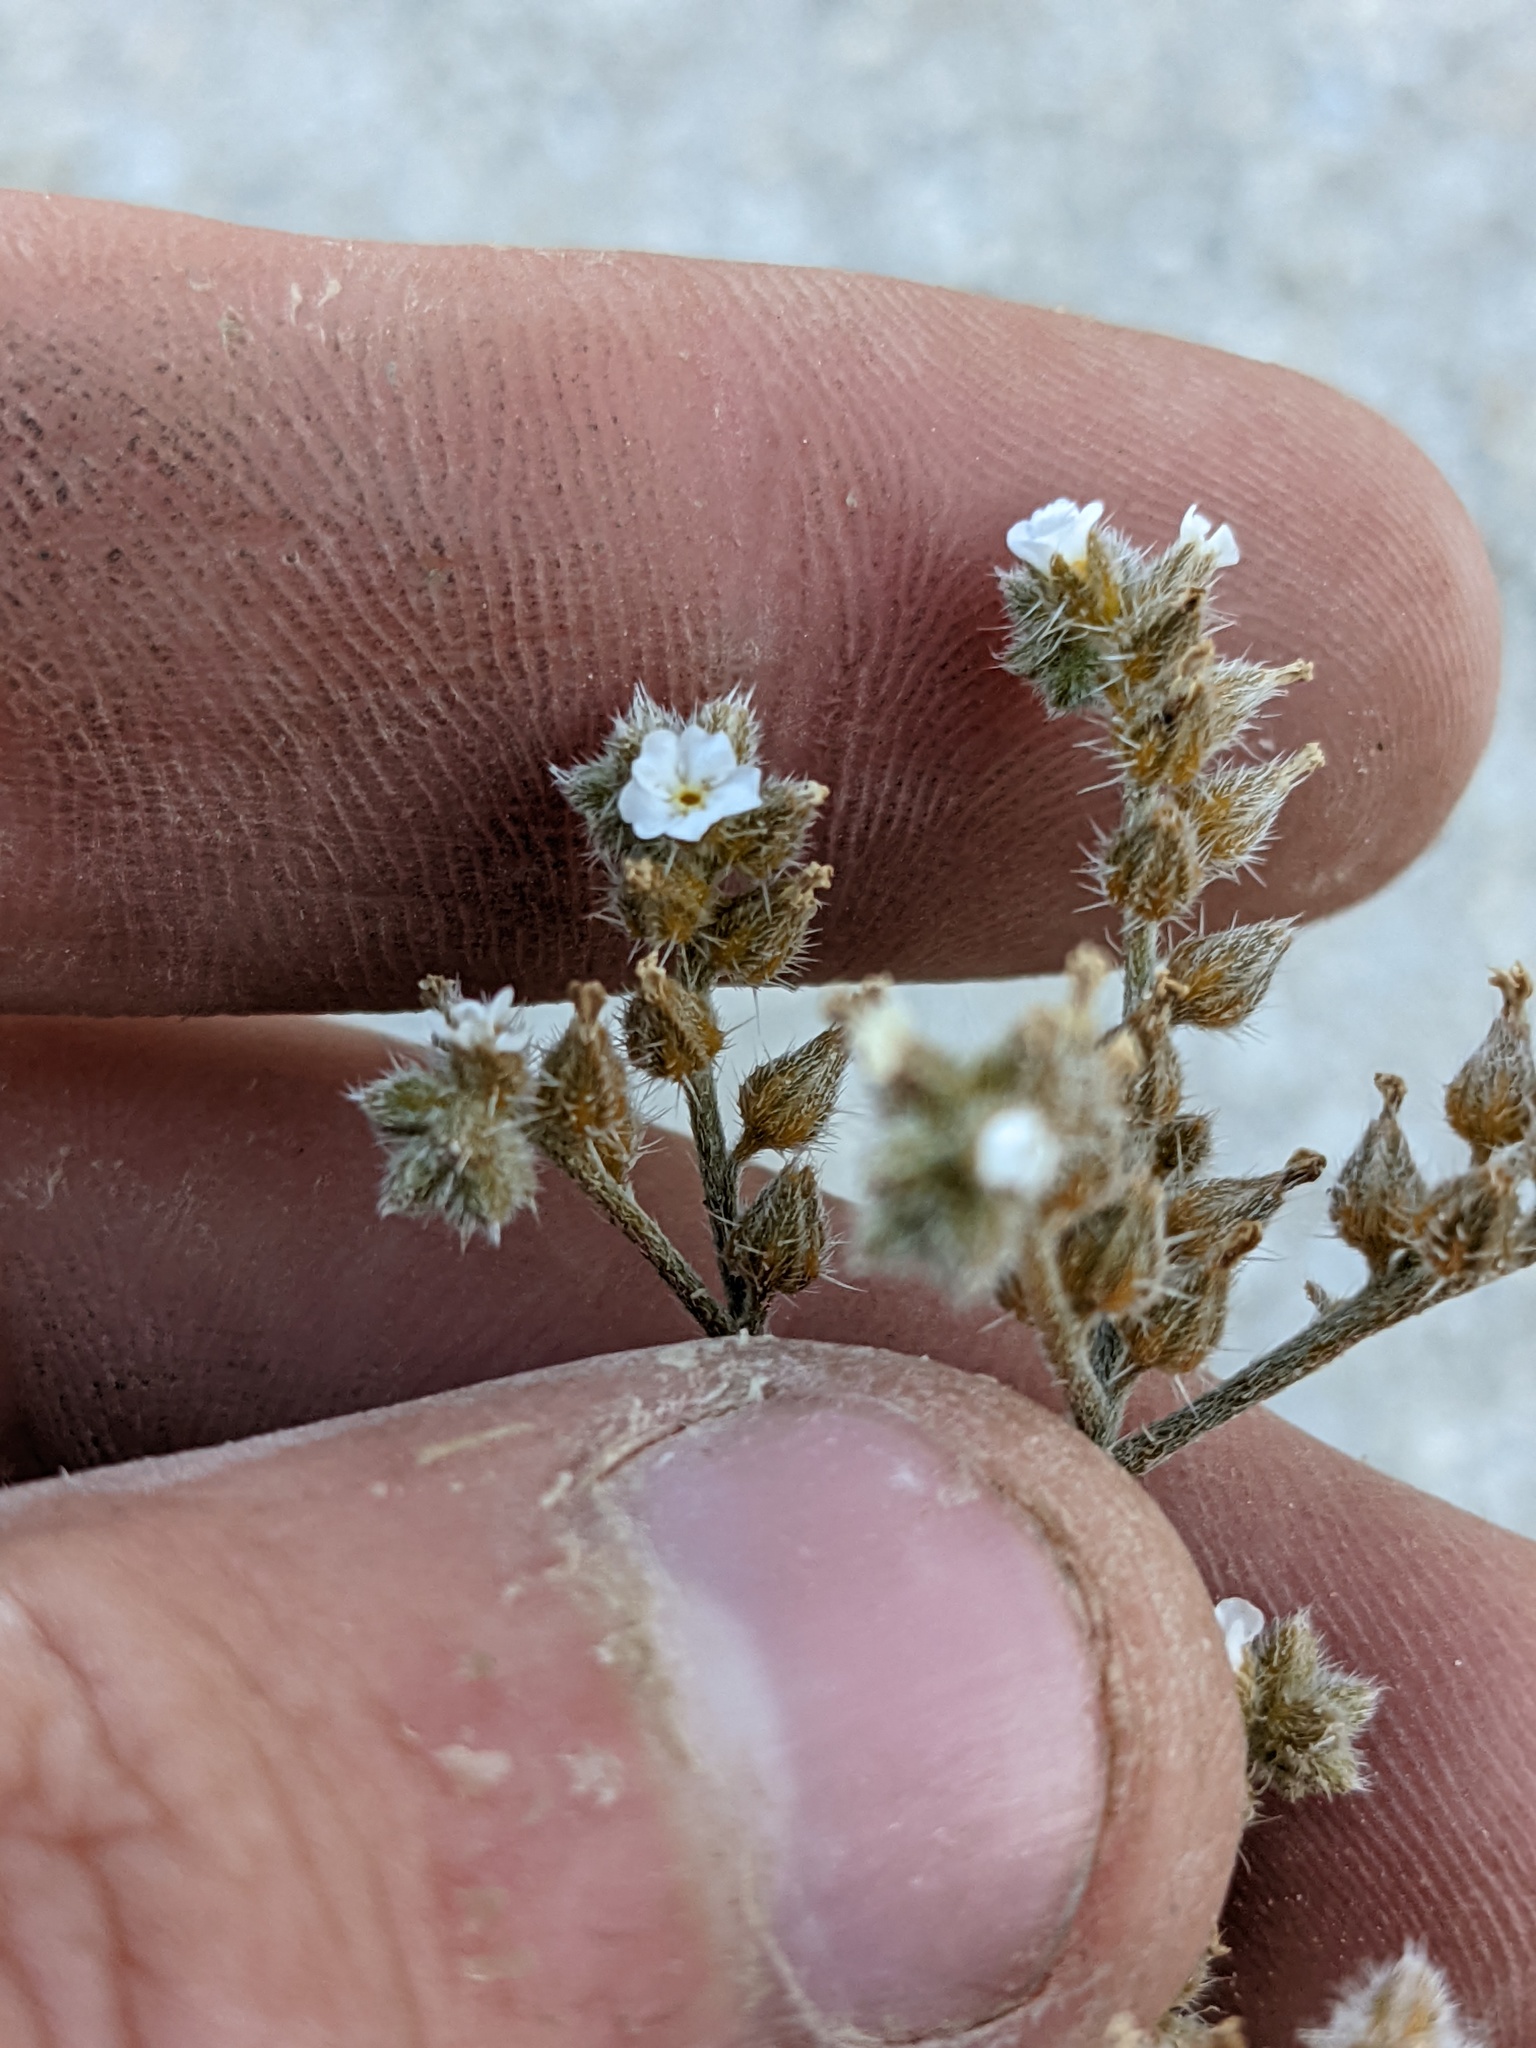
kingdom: Plantae
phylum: Tracheophyta
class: Magnoliopsida
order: Boraginales
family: Boraginaceae
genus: Johnstonella
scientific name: Johnstonella holoptera
